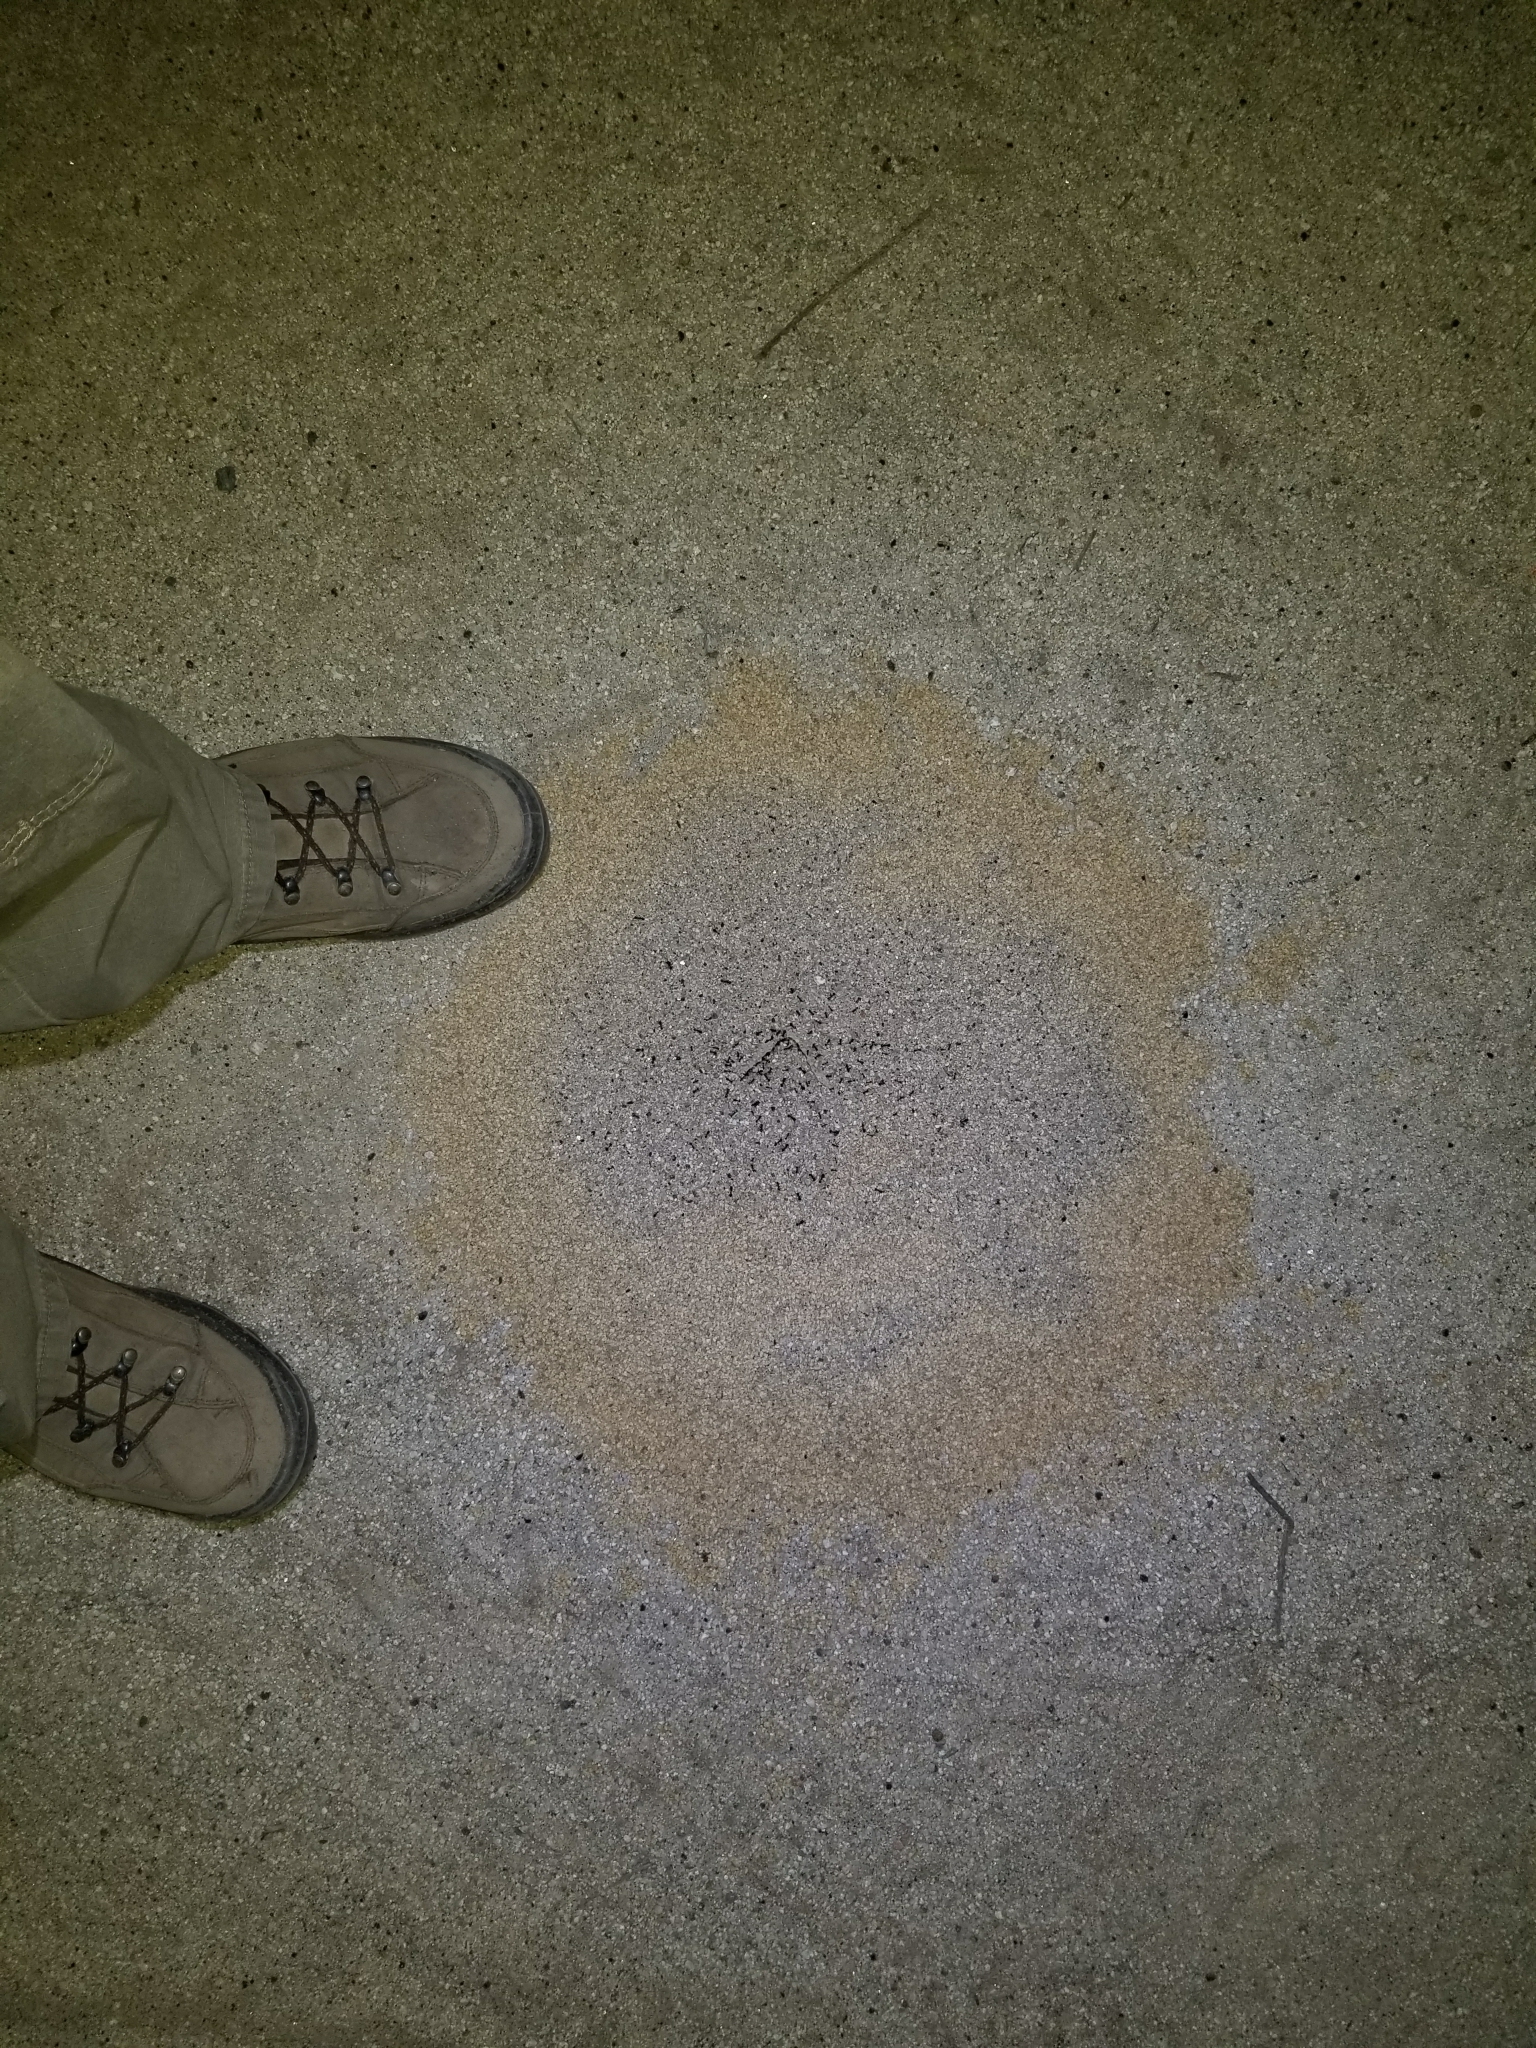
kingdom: Animalia
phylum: Arthropoda
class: Insecta
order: Hymenoptera
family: Formicidae
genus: Messor
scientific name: Messor pergandei
